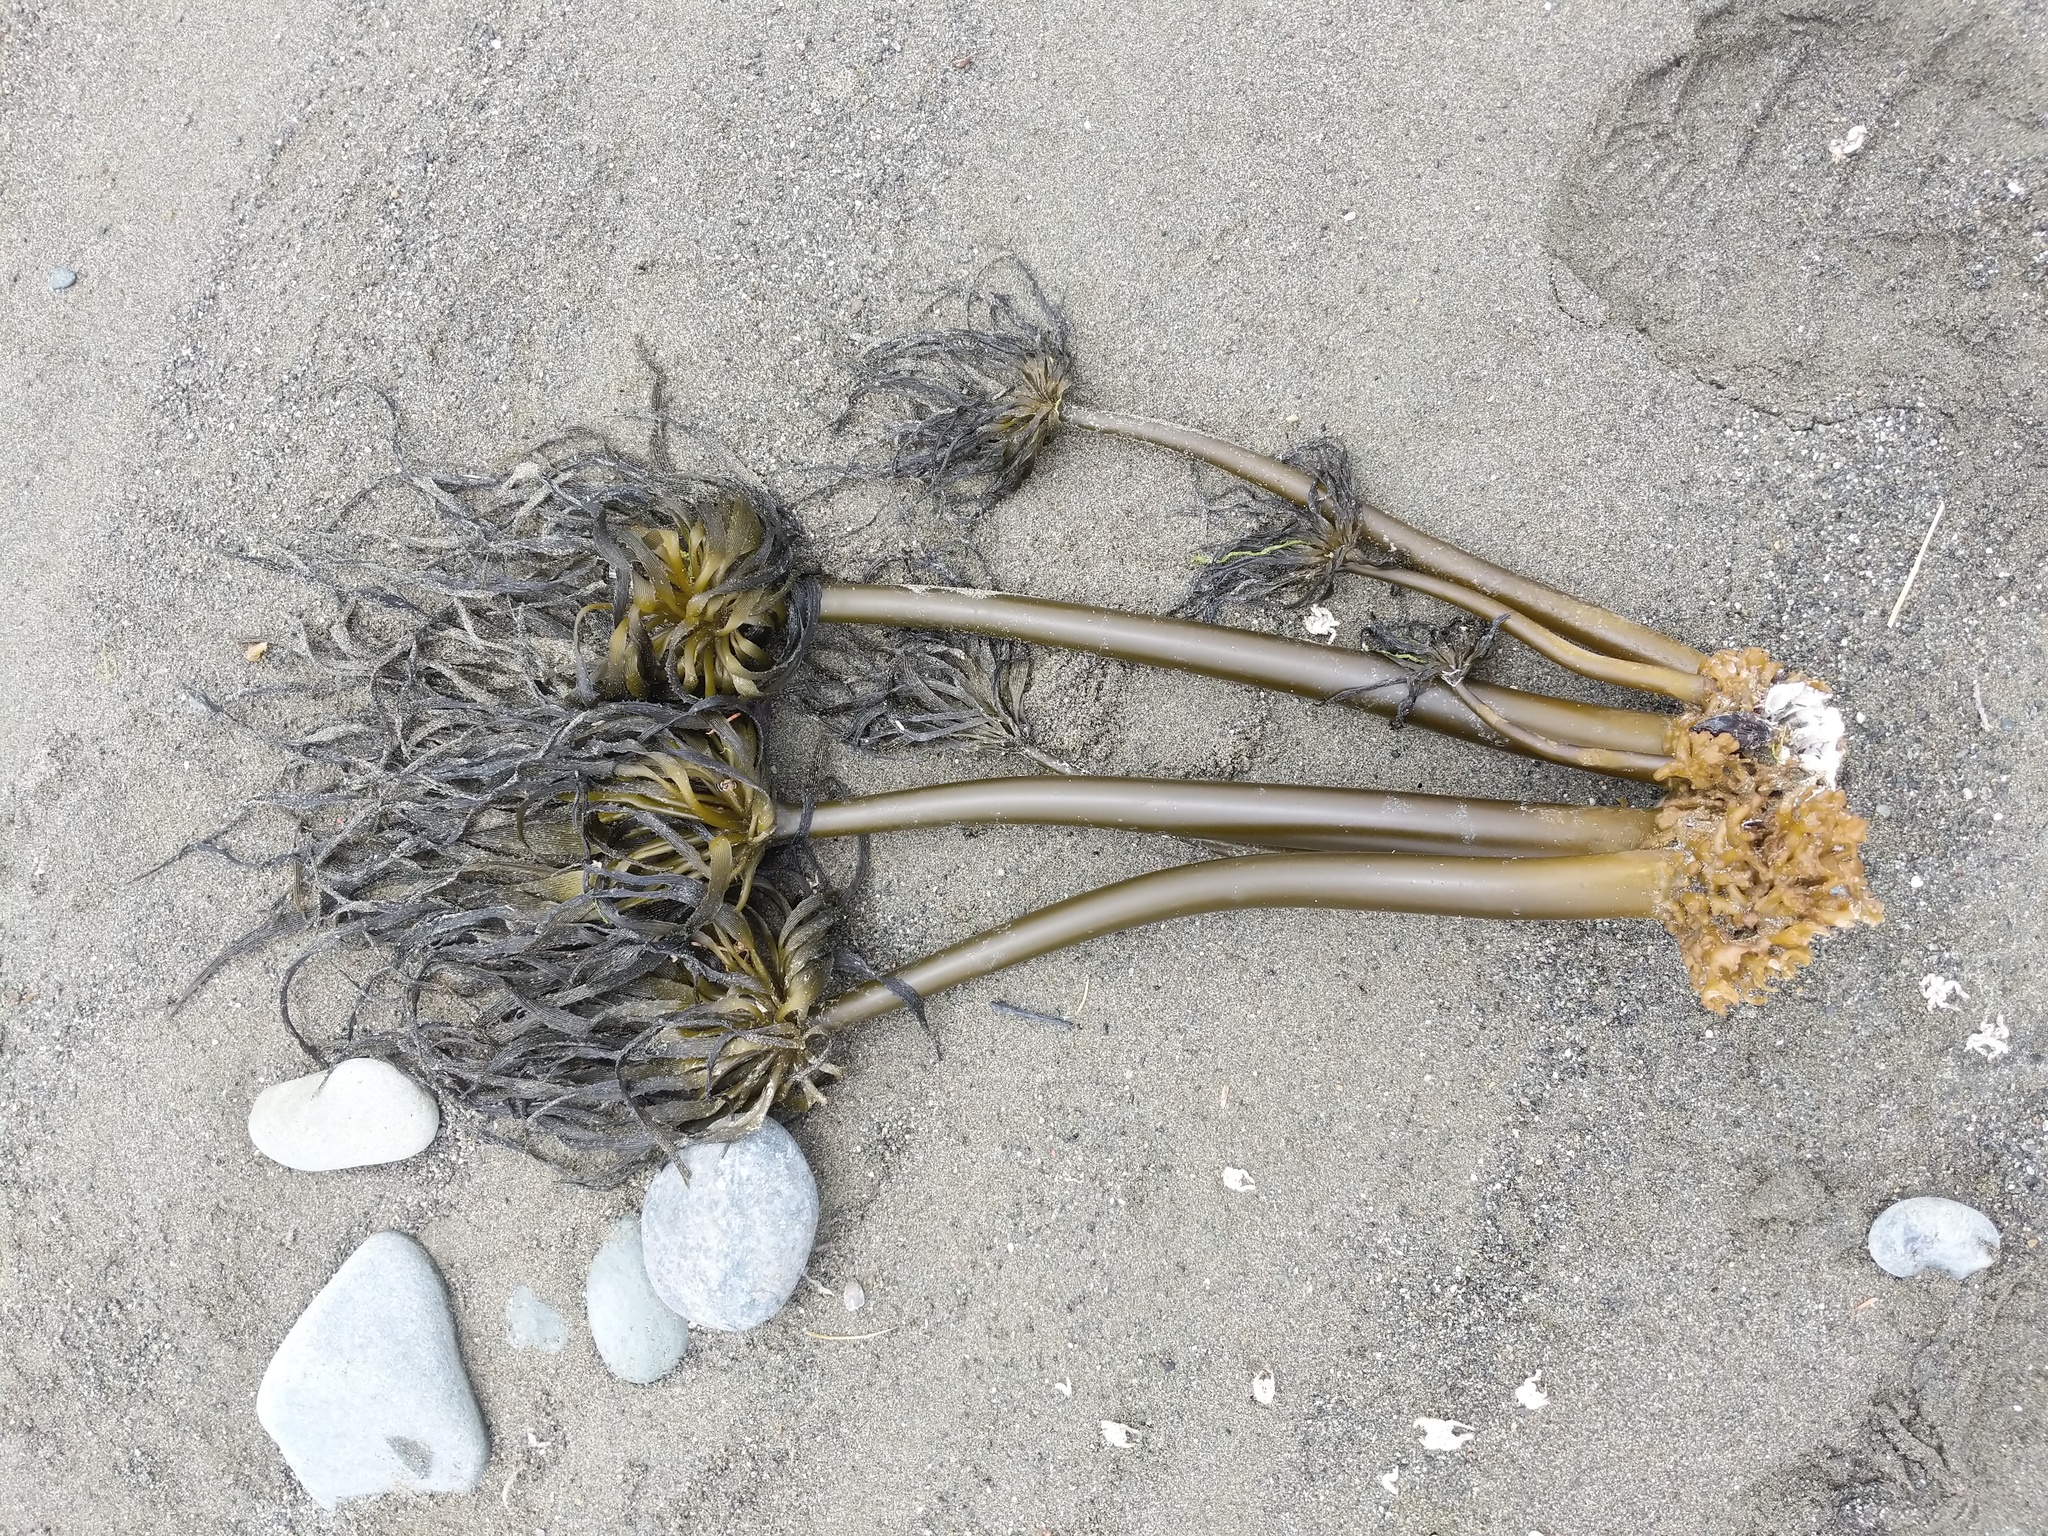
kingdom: Chromista
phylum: Ochrophyta
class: Phaeophyceae
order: Laminariales
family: Laminariaceae
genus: Postelsia
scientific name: Postelsia palmiformis
